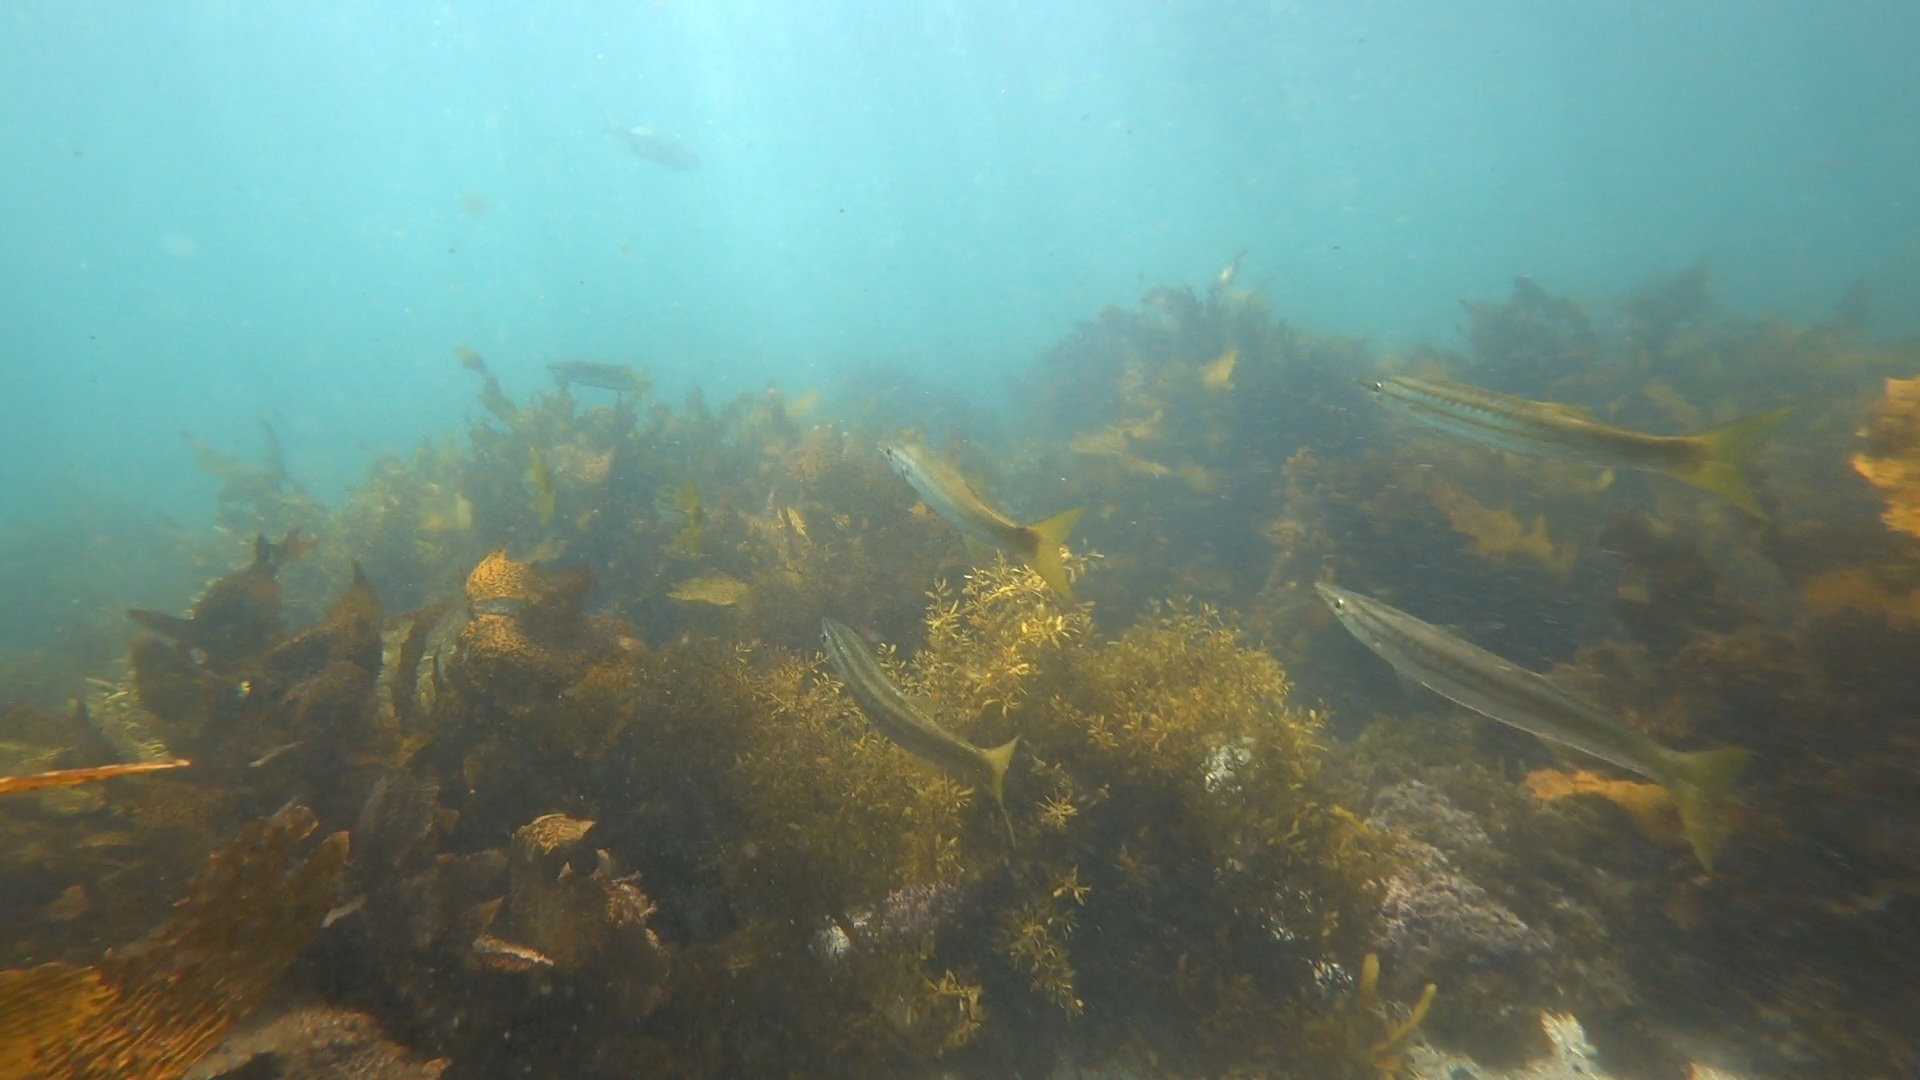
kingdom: Animalia
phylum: Chordata
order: Perciformes
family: Sphyraenidae
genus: Sphyraena
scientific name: Sphyraena obtusata
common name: Obtuse barracuda
